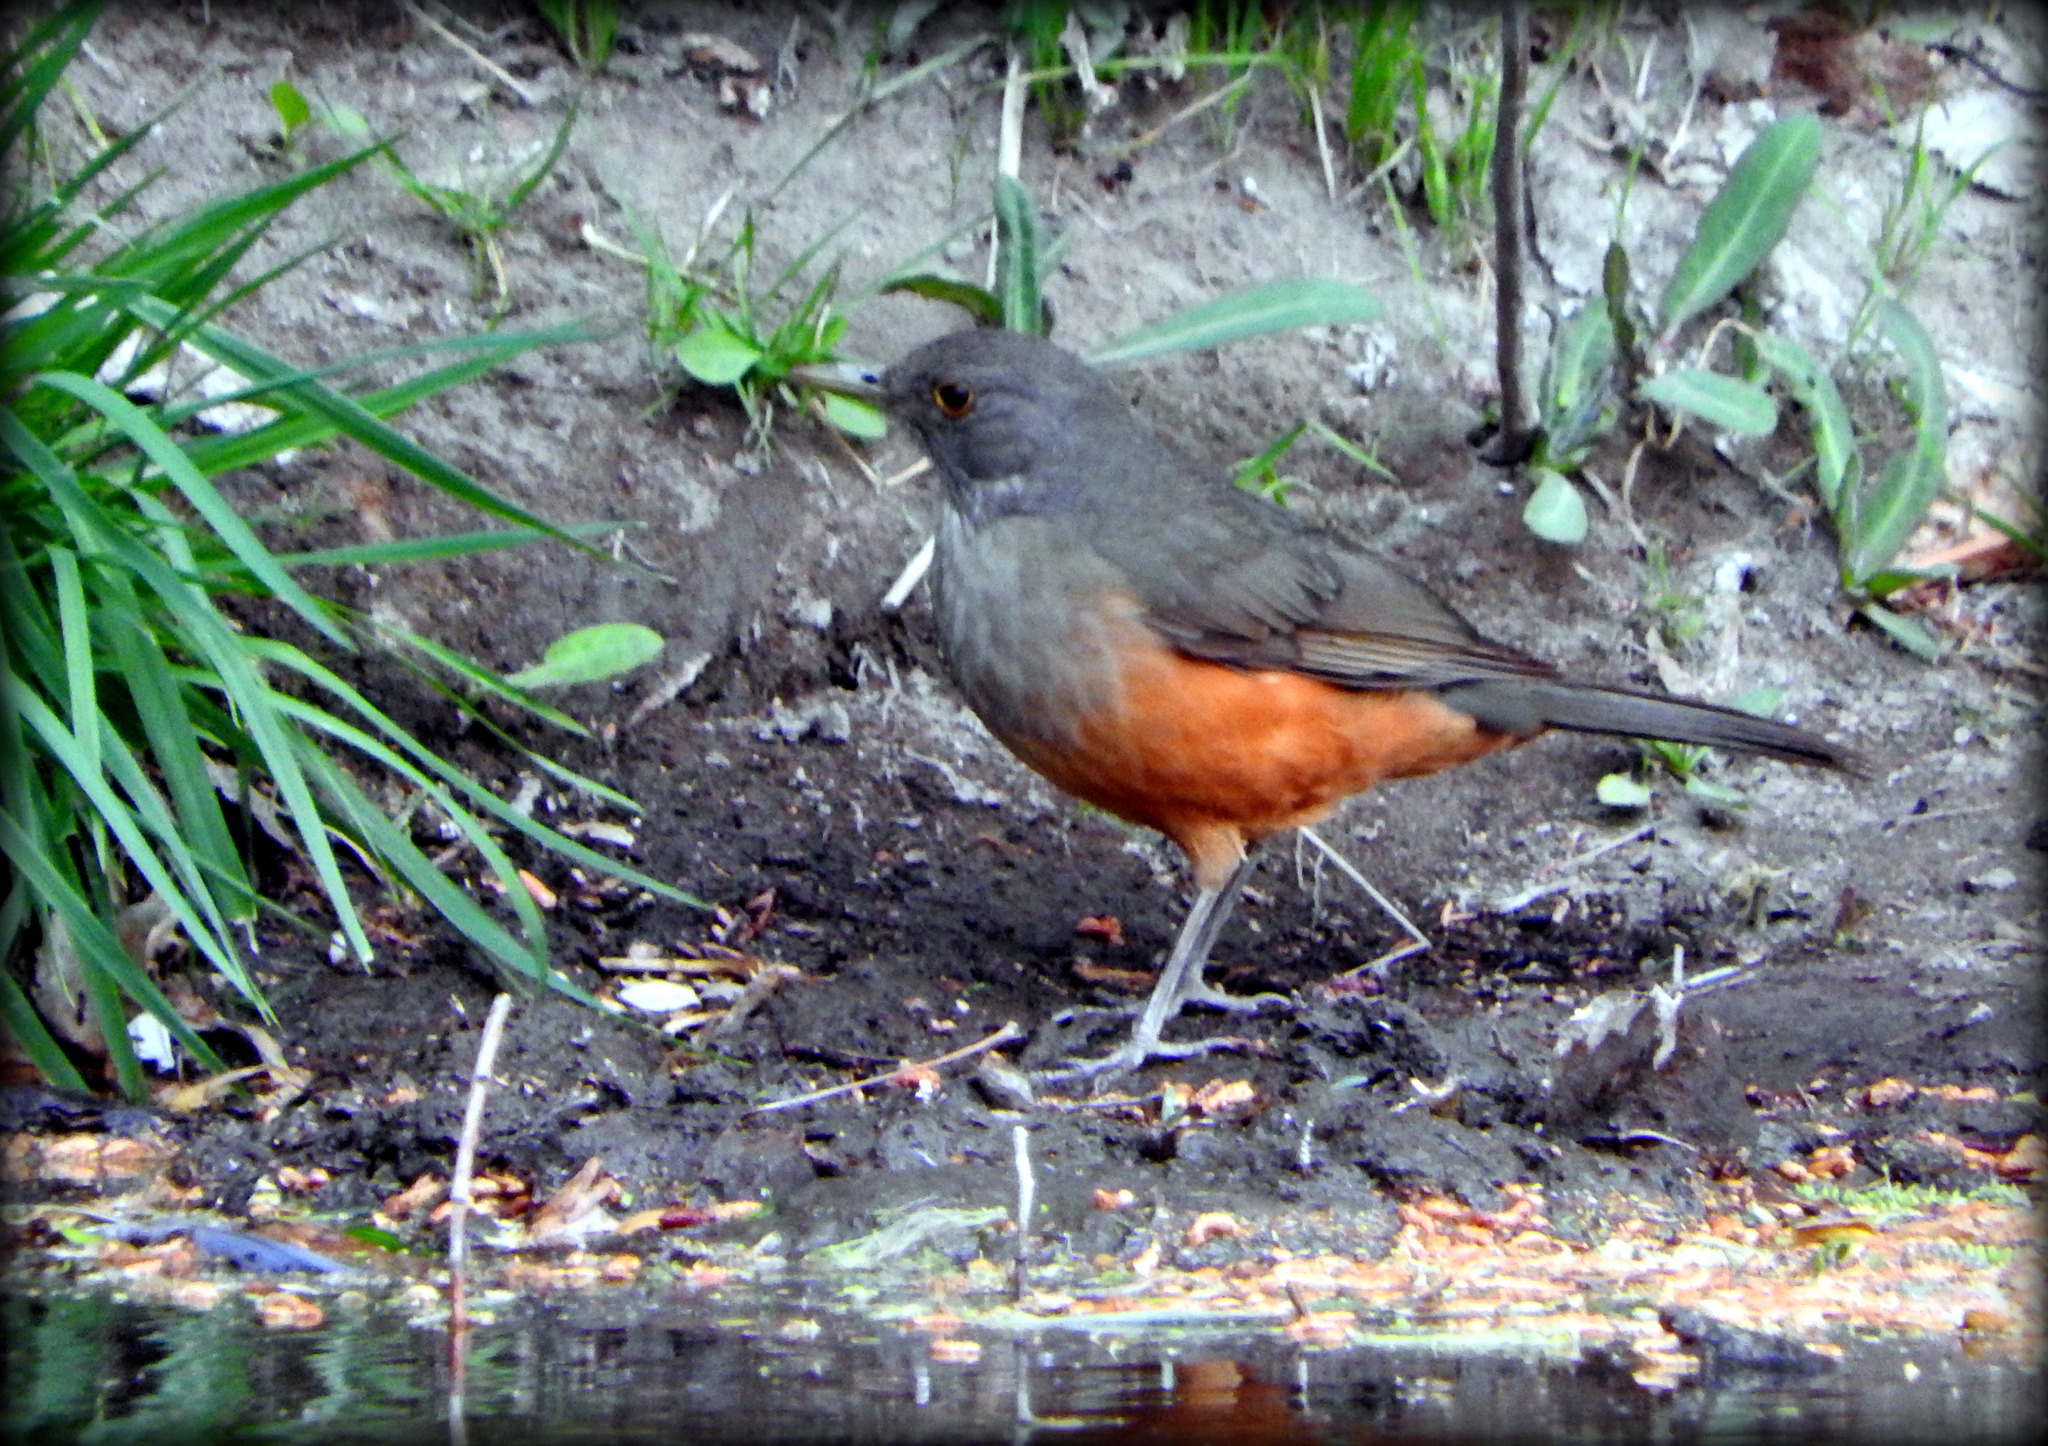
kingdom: Animalia
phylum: Chordata
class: Aves
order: Passeriformes
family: Turdidae
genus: Turdus
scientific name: Turdus rufiventris
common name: Rufous-bellied thrush
